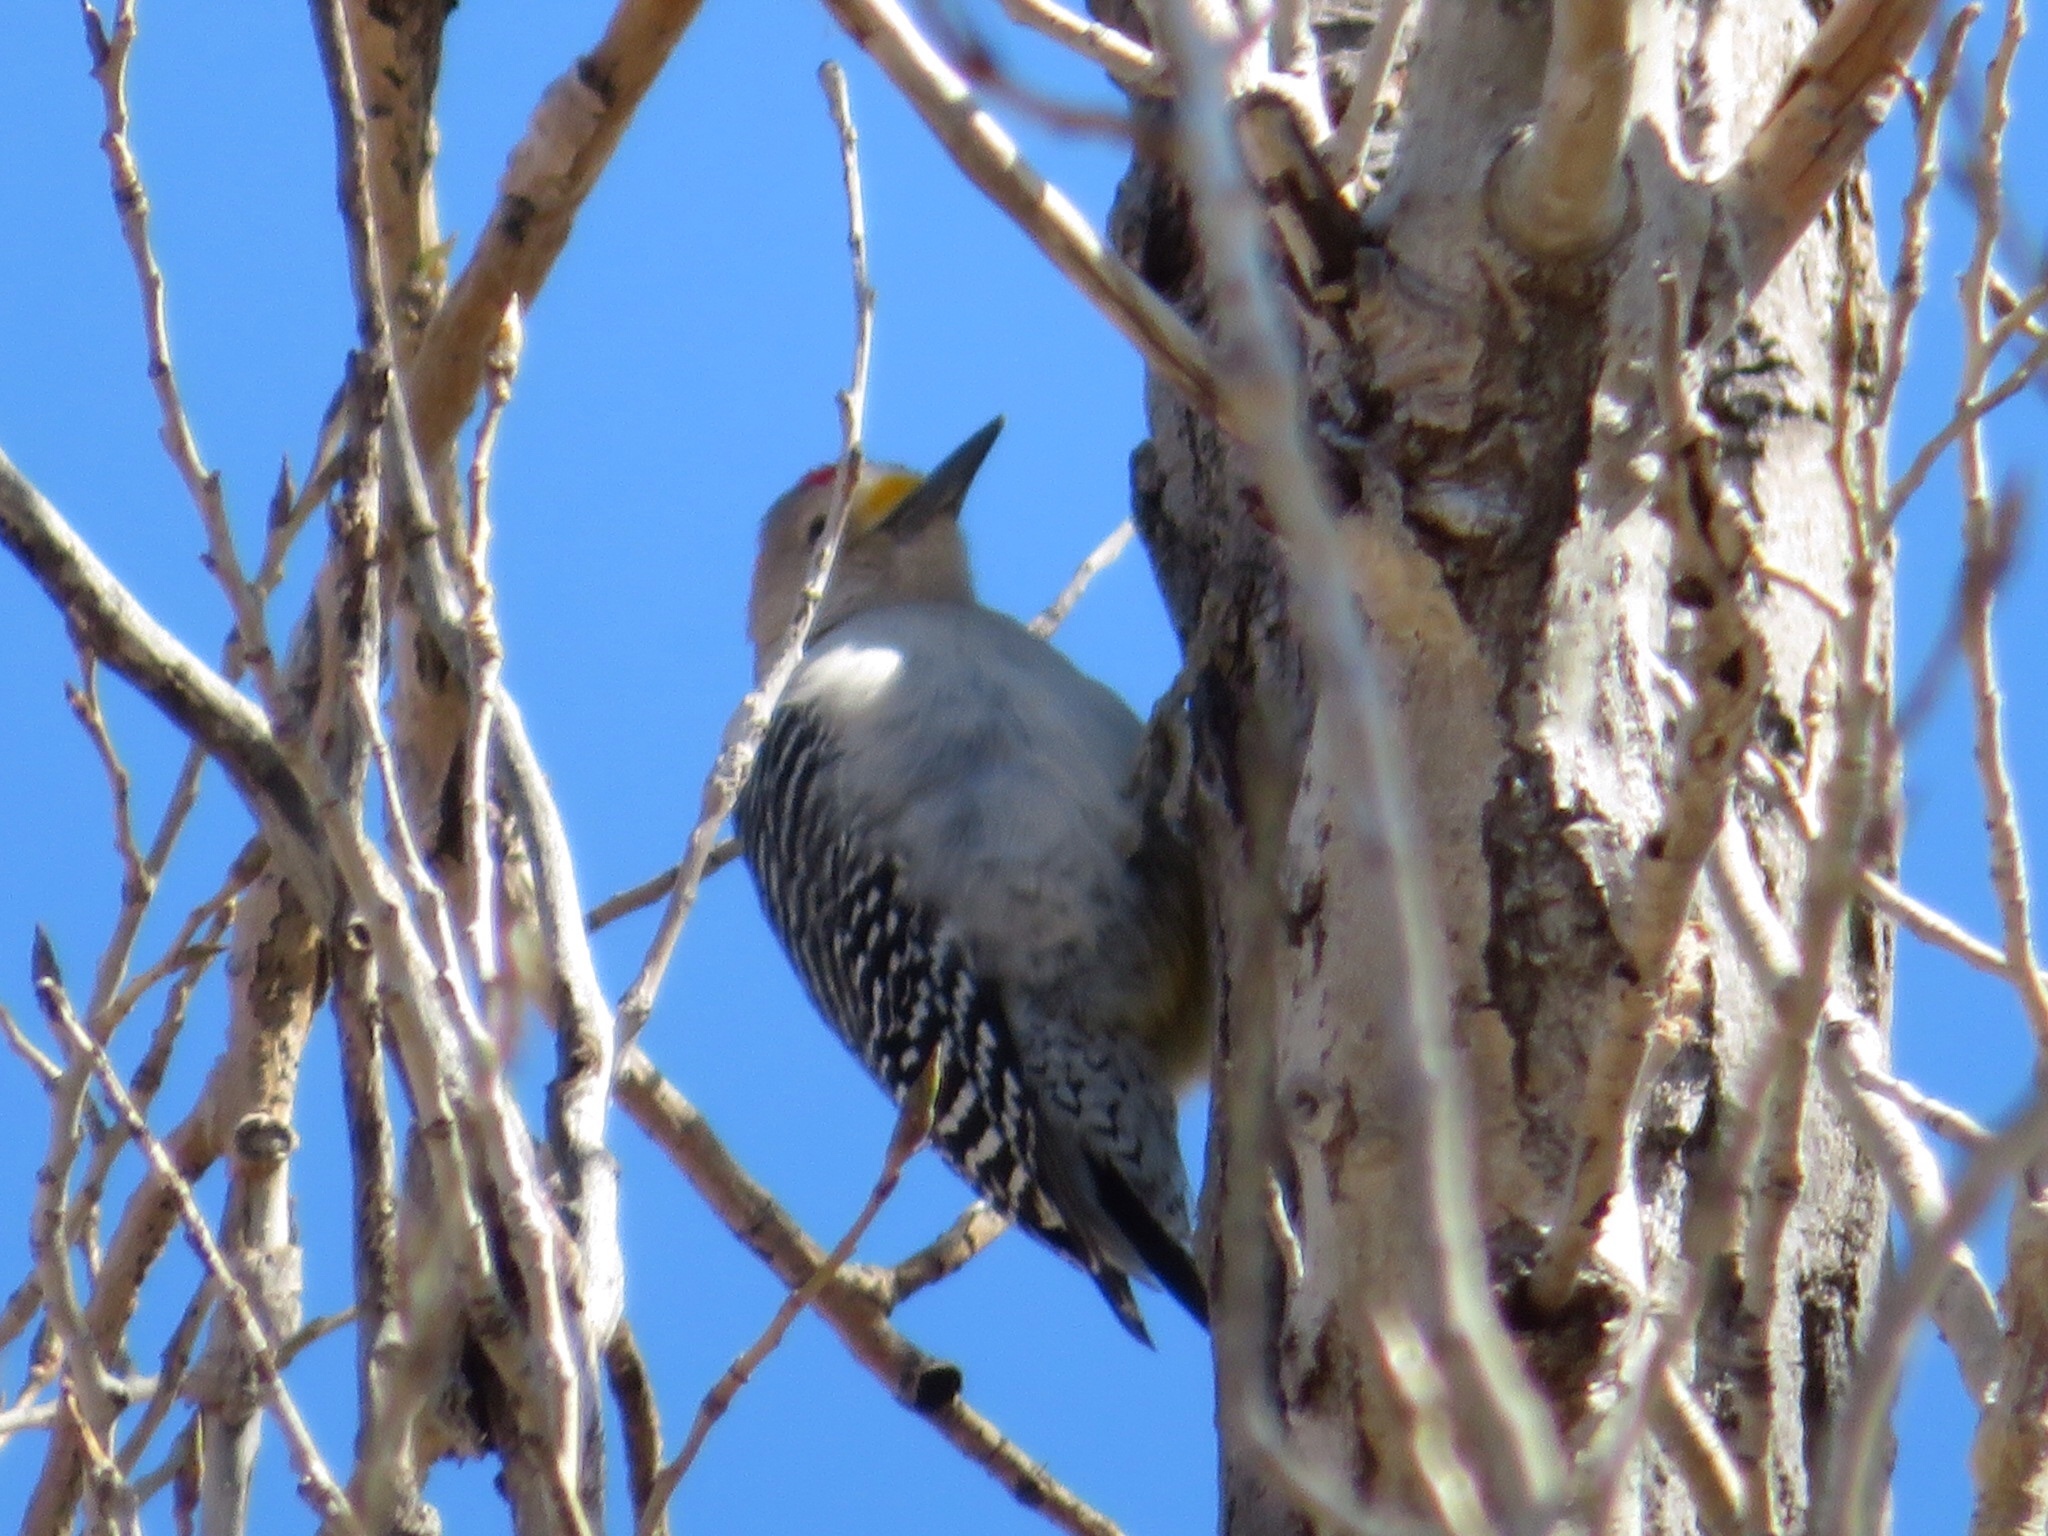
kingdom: Animalia
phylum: Chordata
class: Aves
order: Piciformes
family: Picidae
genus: Melanerpes
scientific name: Melanerpes aurifrons
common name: Golden-fronted woodpecker
